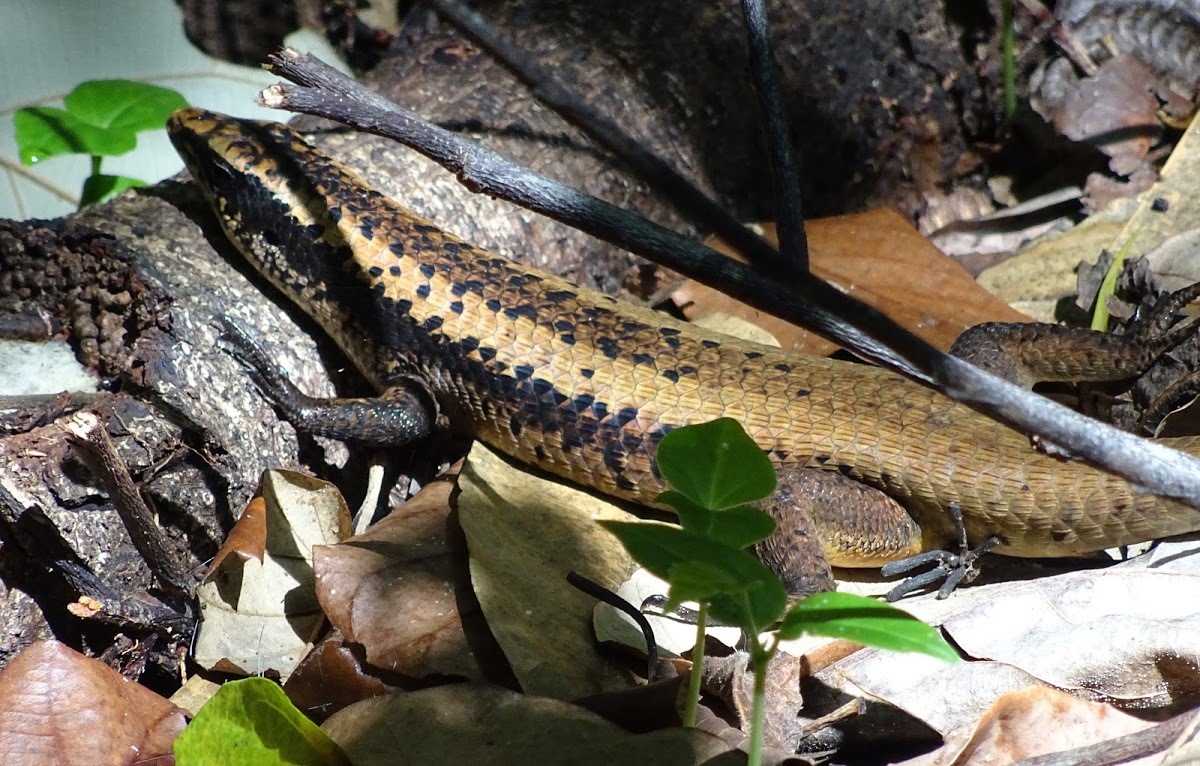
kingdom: Animalia
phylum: Chordata
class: Squamata
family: Scincidae
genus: Eutropis
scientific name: Eutropis macrophthalma
